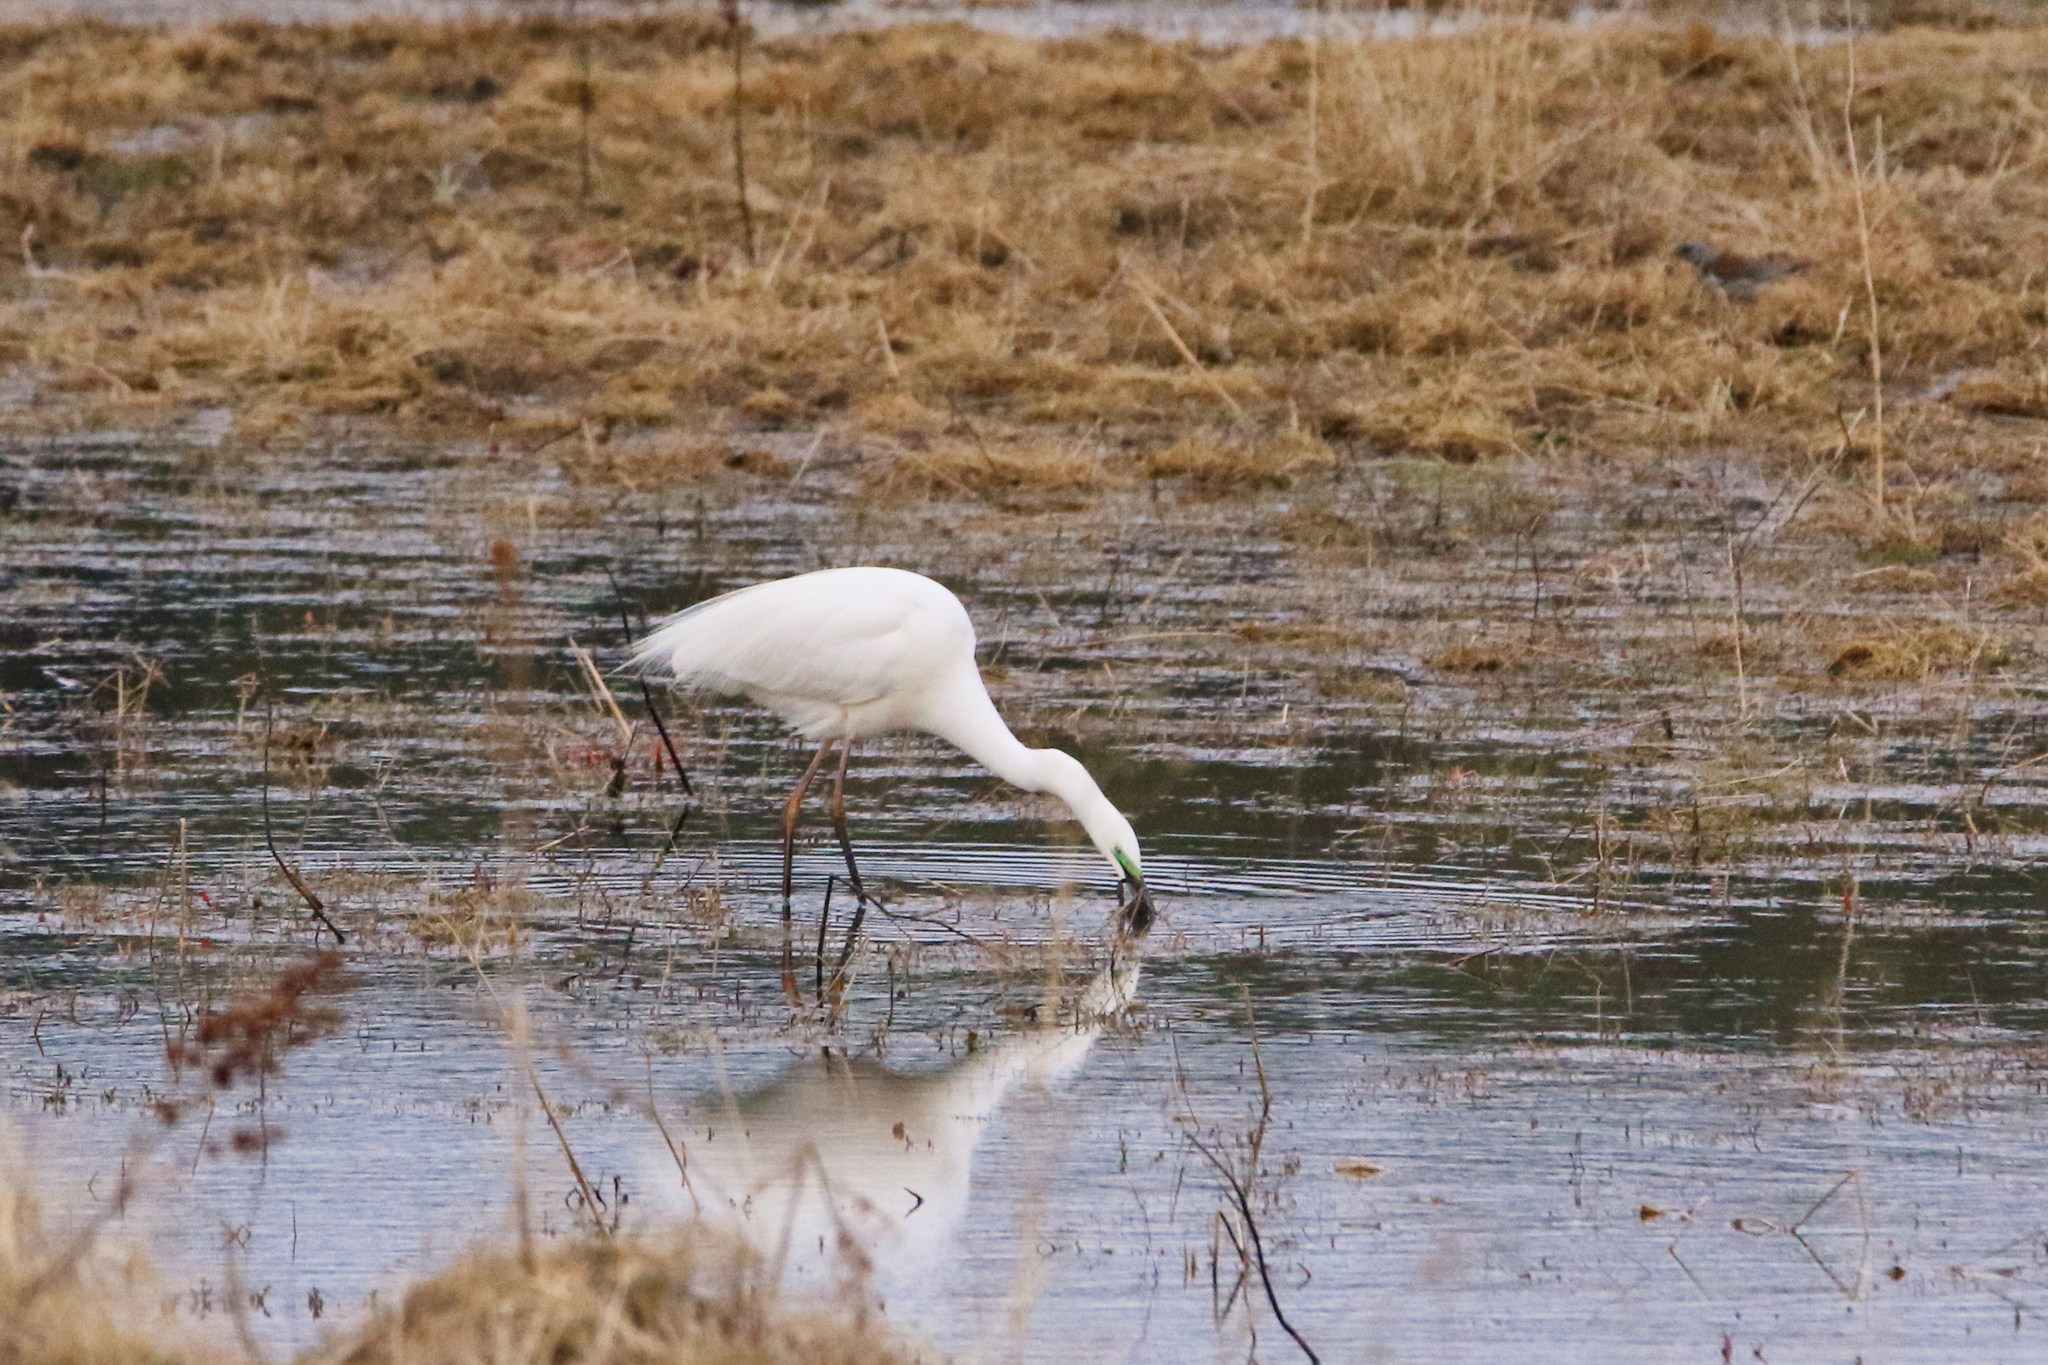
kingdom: Animalia
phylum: Chordata
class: Aves
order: Pelecaniformes
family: Ardeidae
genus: Ardea
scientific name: Ardea alba
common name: Great egret
